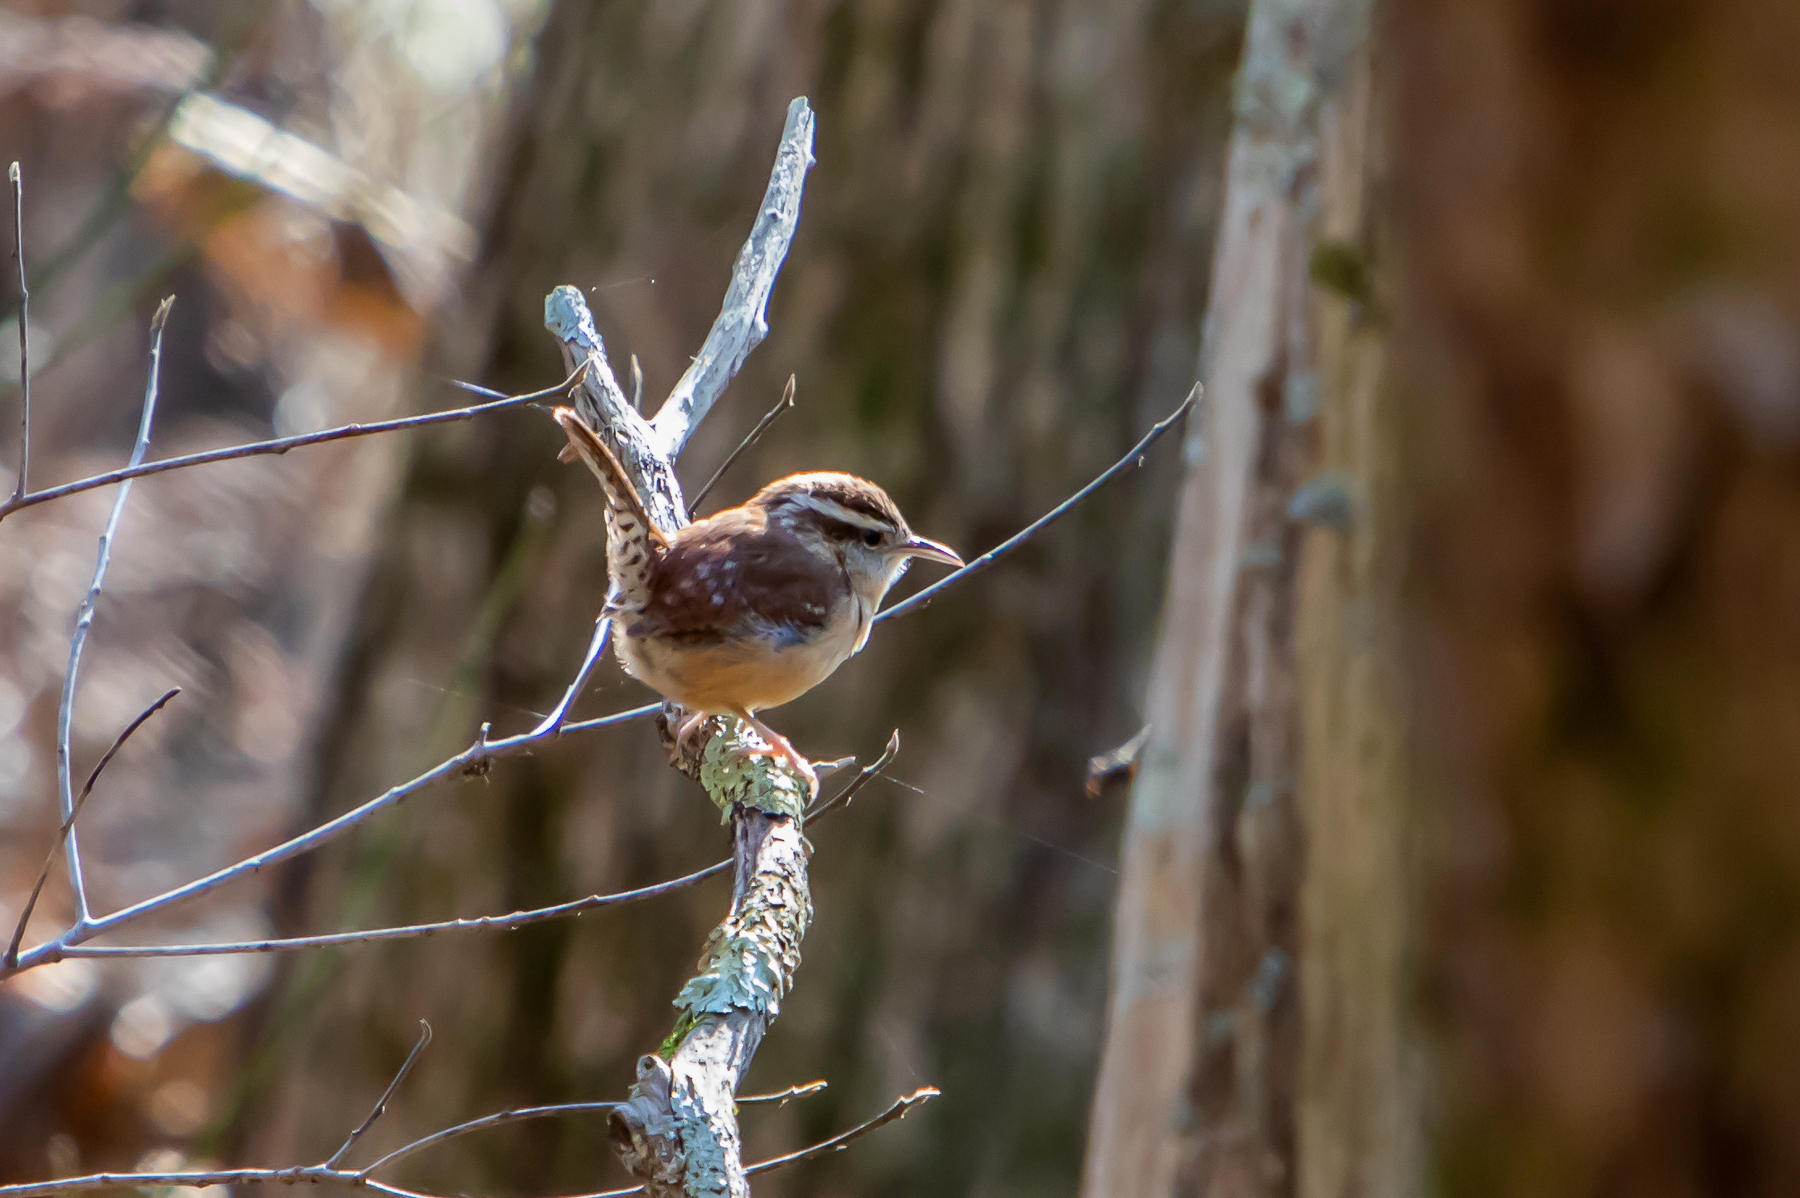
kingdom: Animalia
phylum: Chordata
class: Aves
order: Passeriformes
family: Troglodytidae
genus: Thryothorus
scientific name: Thryothorus ludovicianus
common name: Carolina wren
